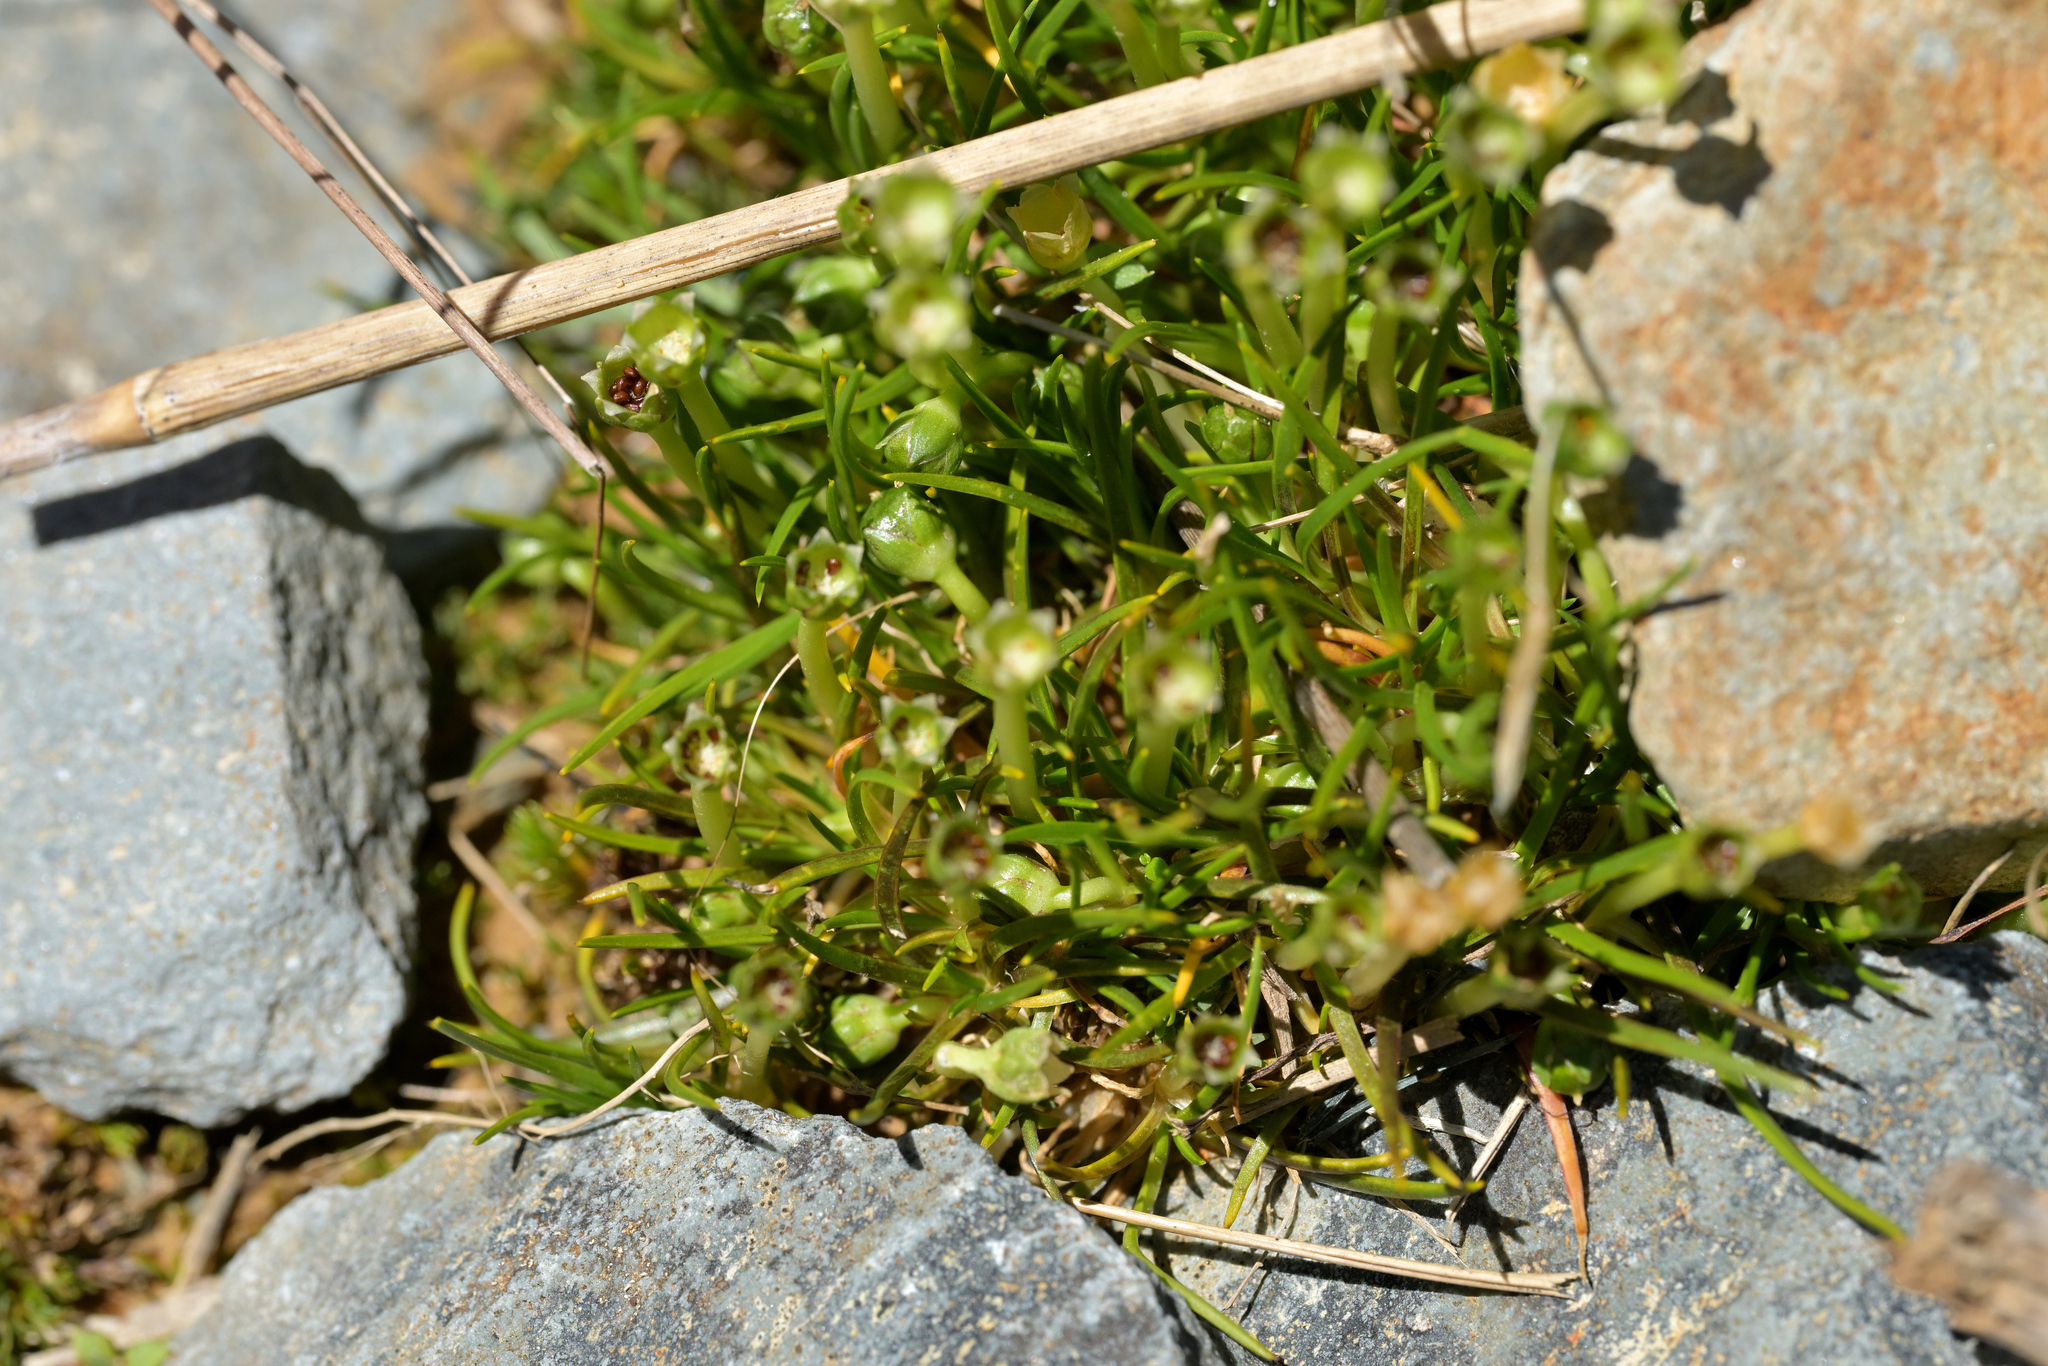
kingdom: Plantae
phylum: Tracheophyta
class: Magnoliopsida
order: Caryophyllales
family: Caryophyllaceae
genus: Colobanthus
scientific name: Colobanthus affinis
